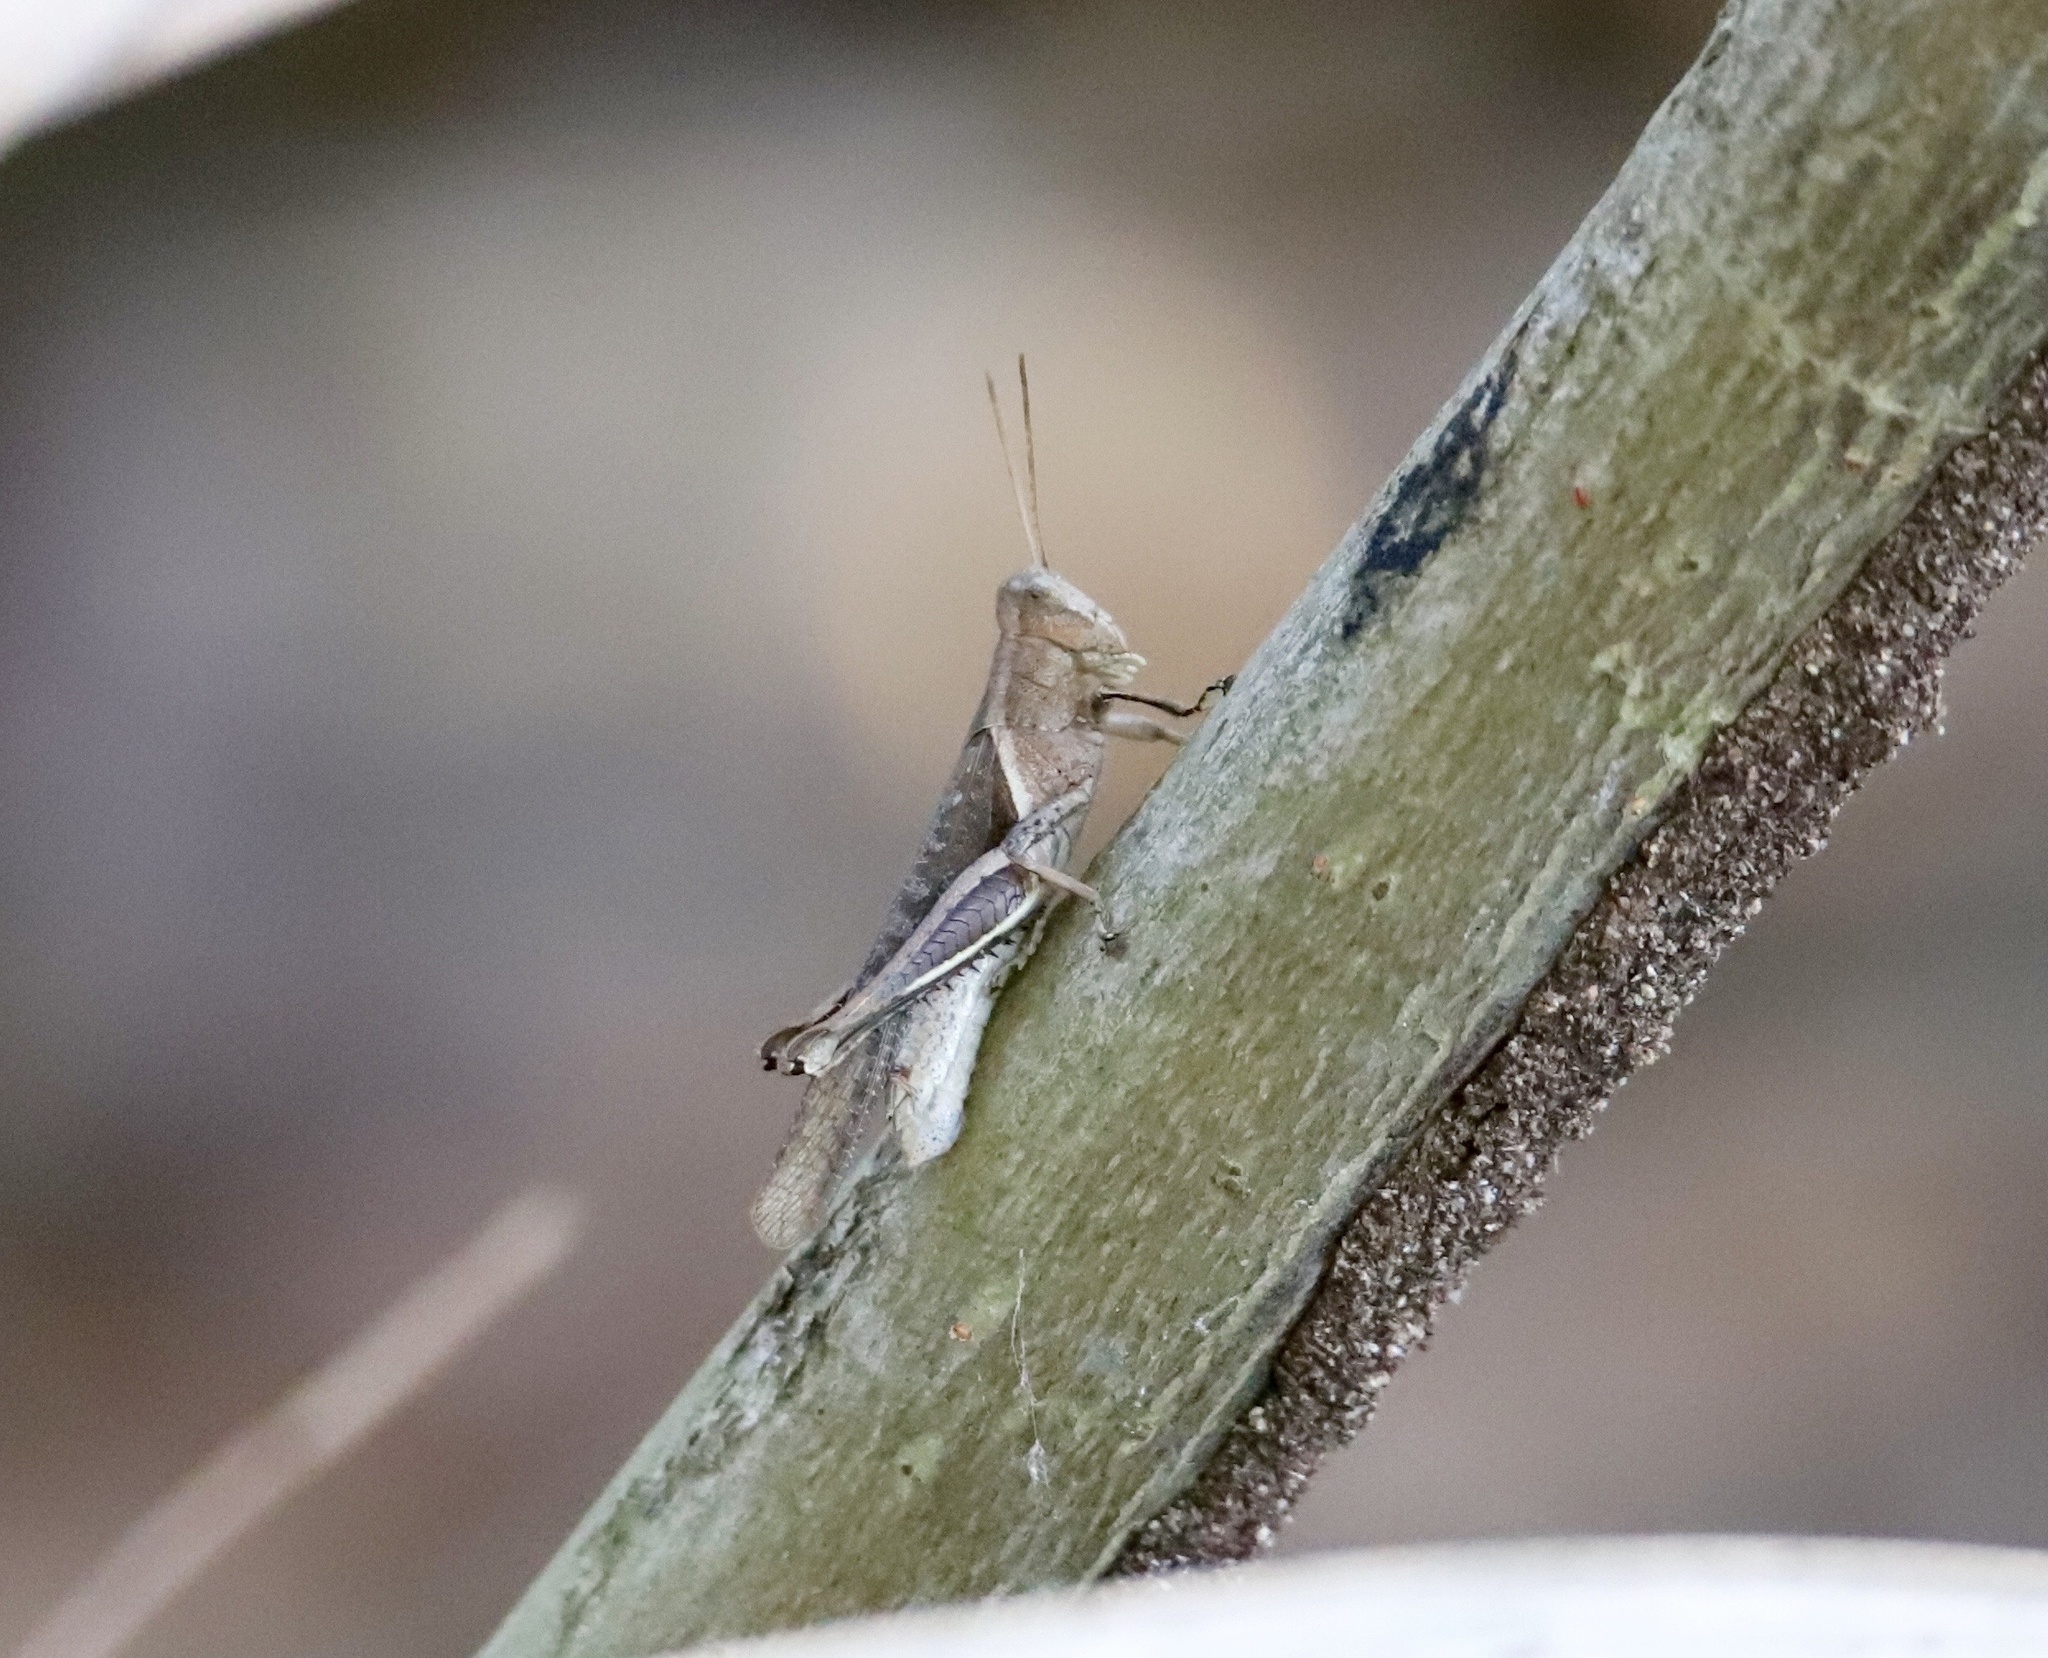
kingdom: Animalia
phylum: Arthropoda
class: Insecta
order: Orthoptera
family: Acrididae
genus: Abracris
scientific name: Abracris flavolineata
